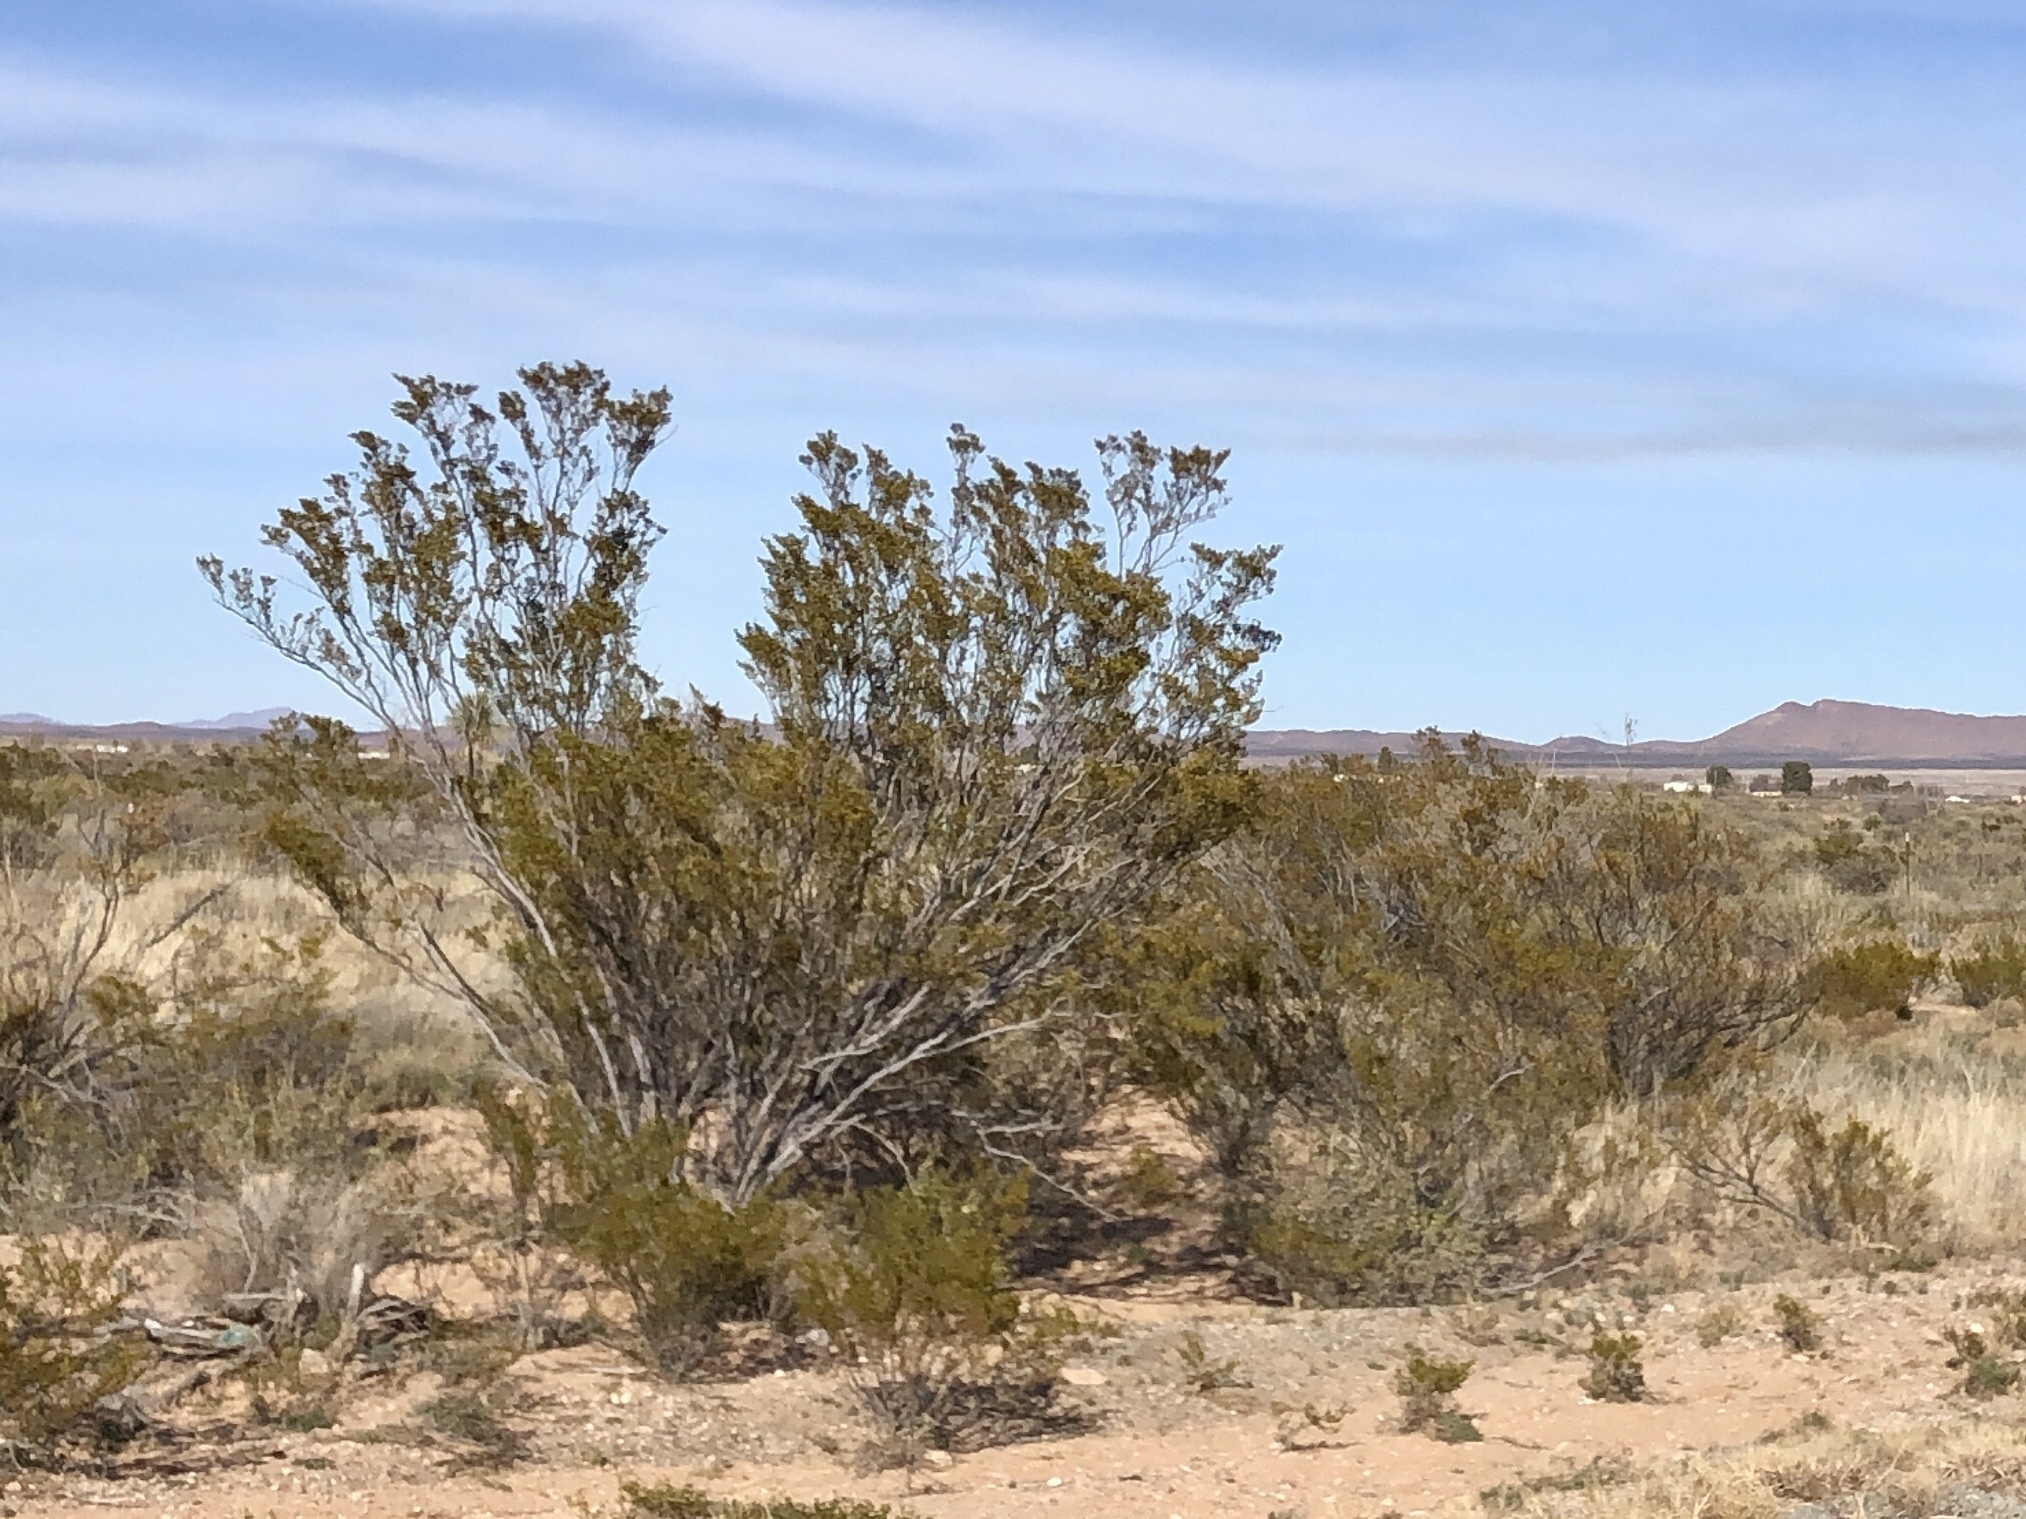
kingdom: Plantae
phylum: Tracheophyta
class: Magnoliopsida
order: Zygophyllales
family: Zygophyllaceae
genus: Larrea
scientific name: Larrea tridentata
